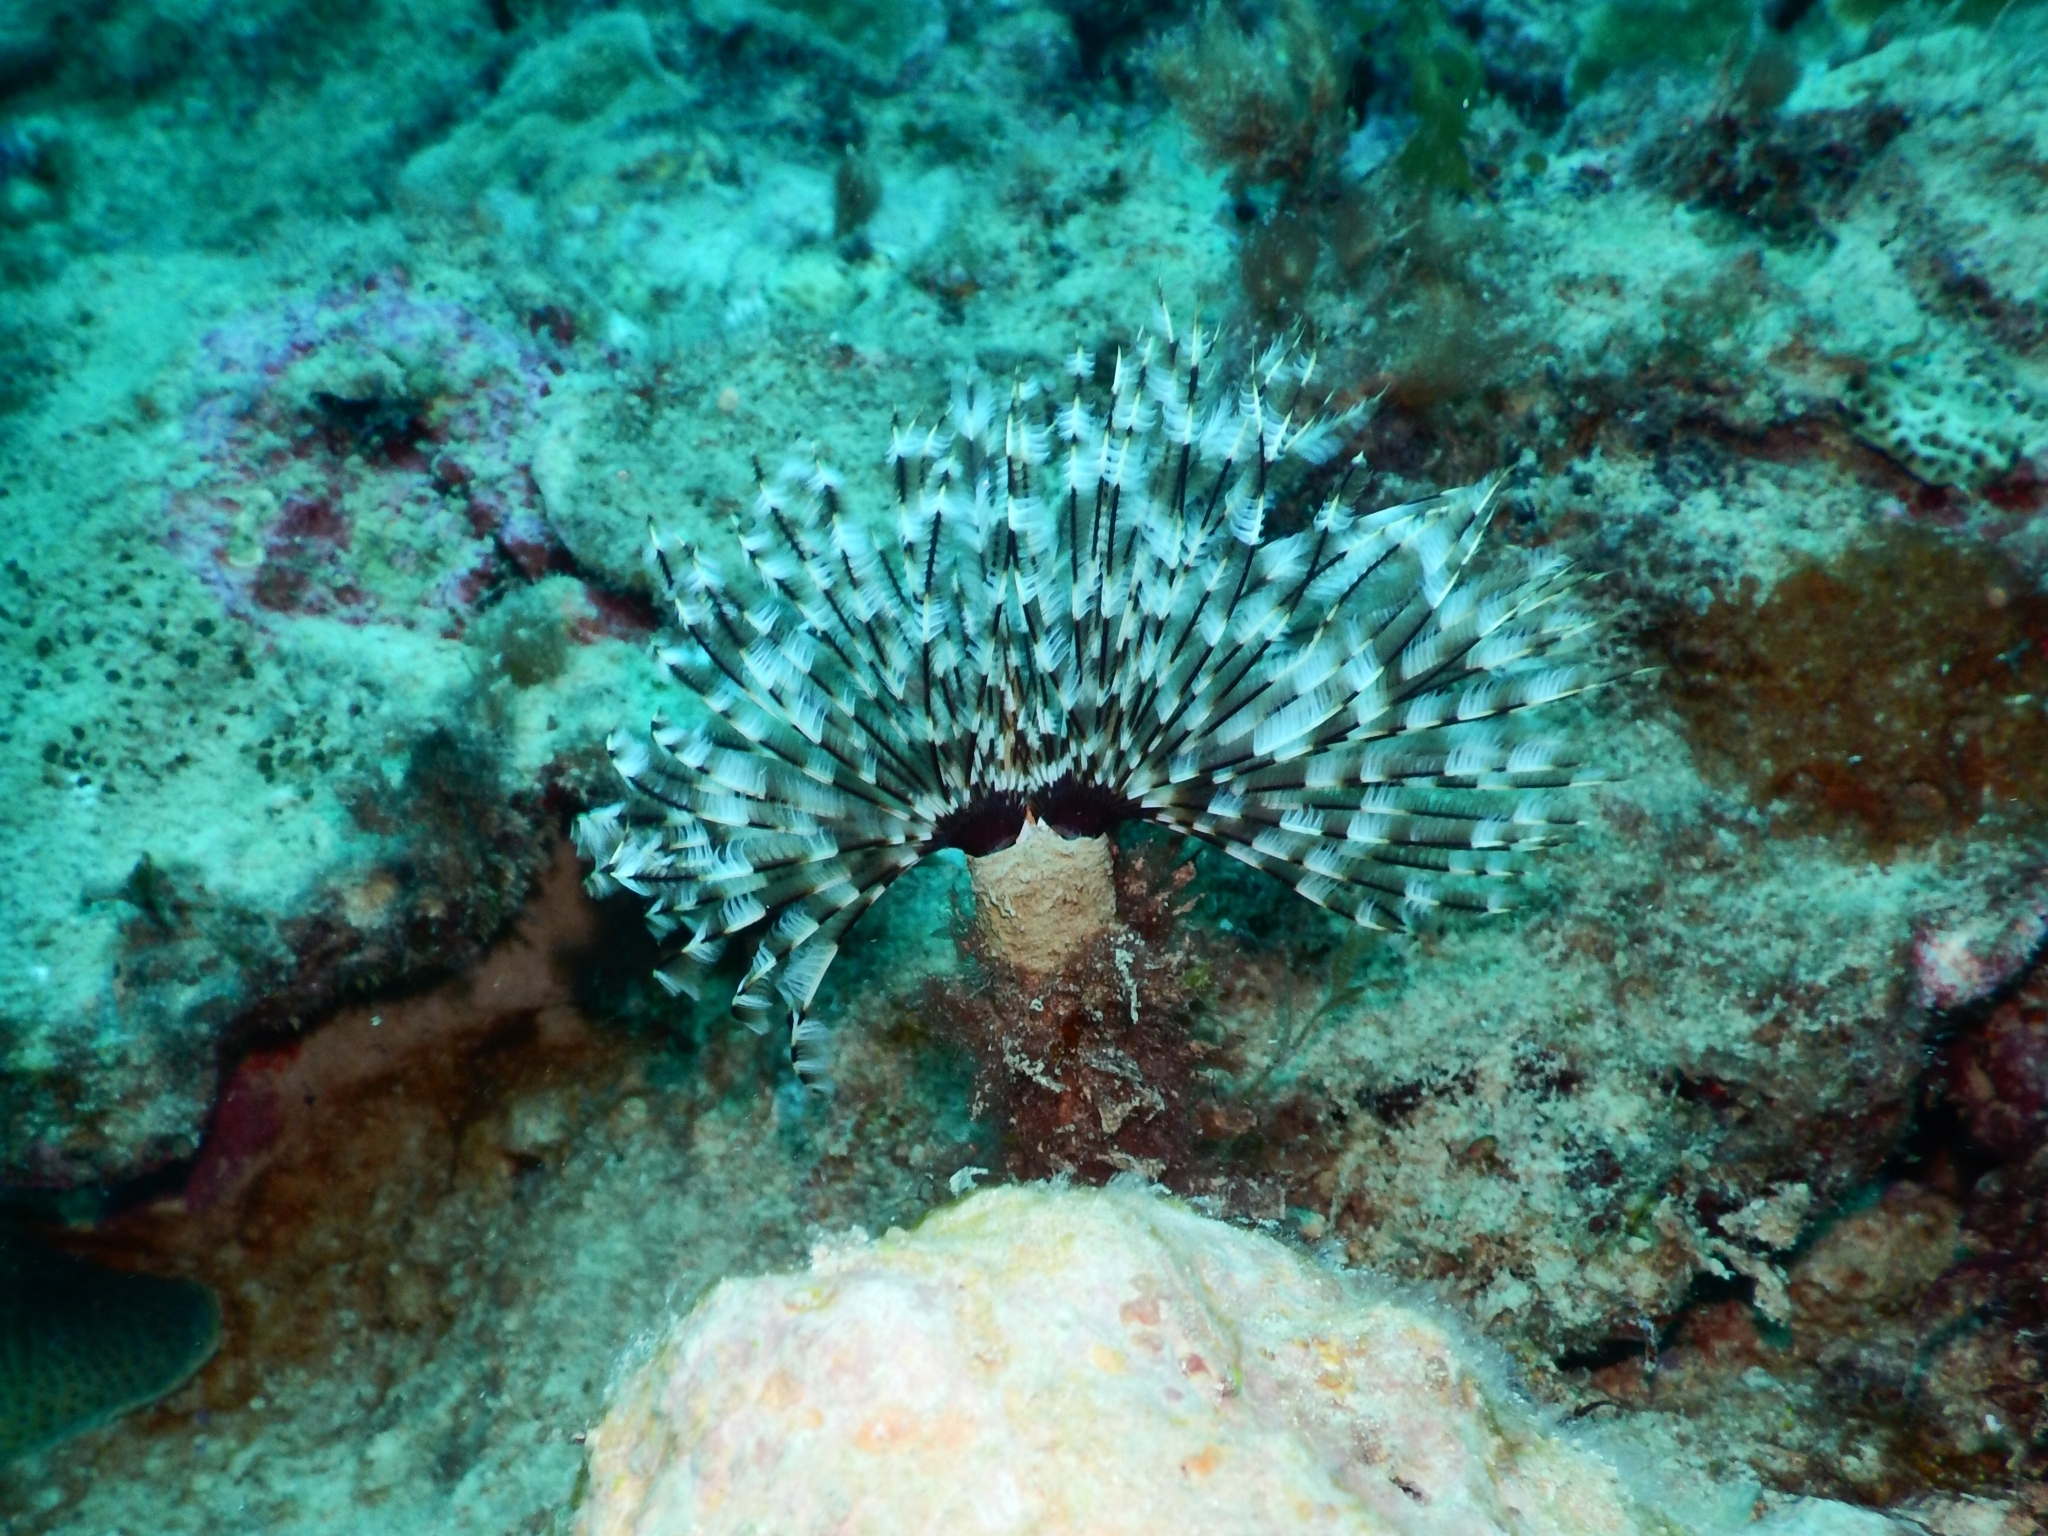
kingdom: Animalia
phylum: Annelida
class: Polychaeta
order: Sabellida
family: Sabellidae
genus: Sabellastarte
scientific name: Sabellastarte magnifica
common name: Giant feather-duster worm
